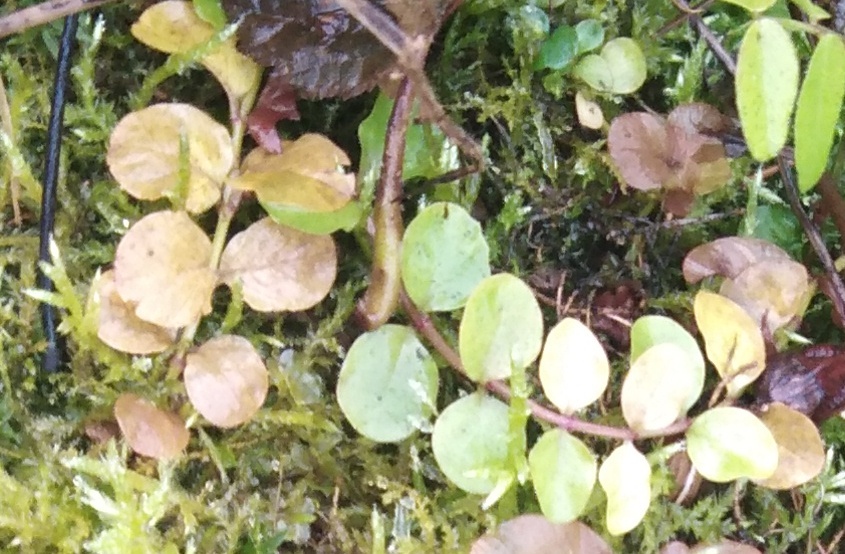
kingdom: Plantae
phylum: Tracheophyta
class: Magnoliopsida
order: Ericales
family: Primulaceae
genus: Lysimachia
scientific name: Lysimachia nummularia
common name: Moneywort
